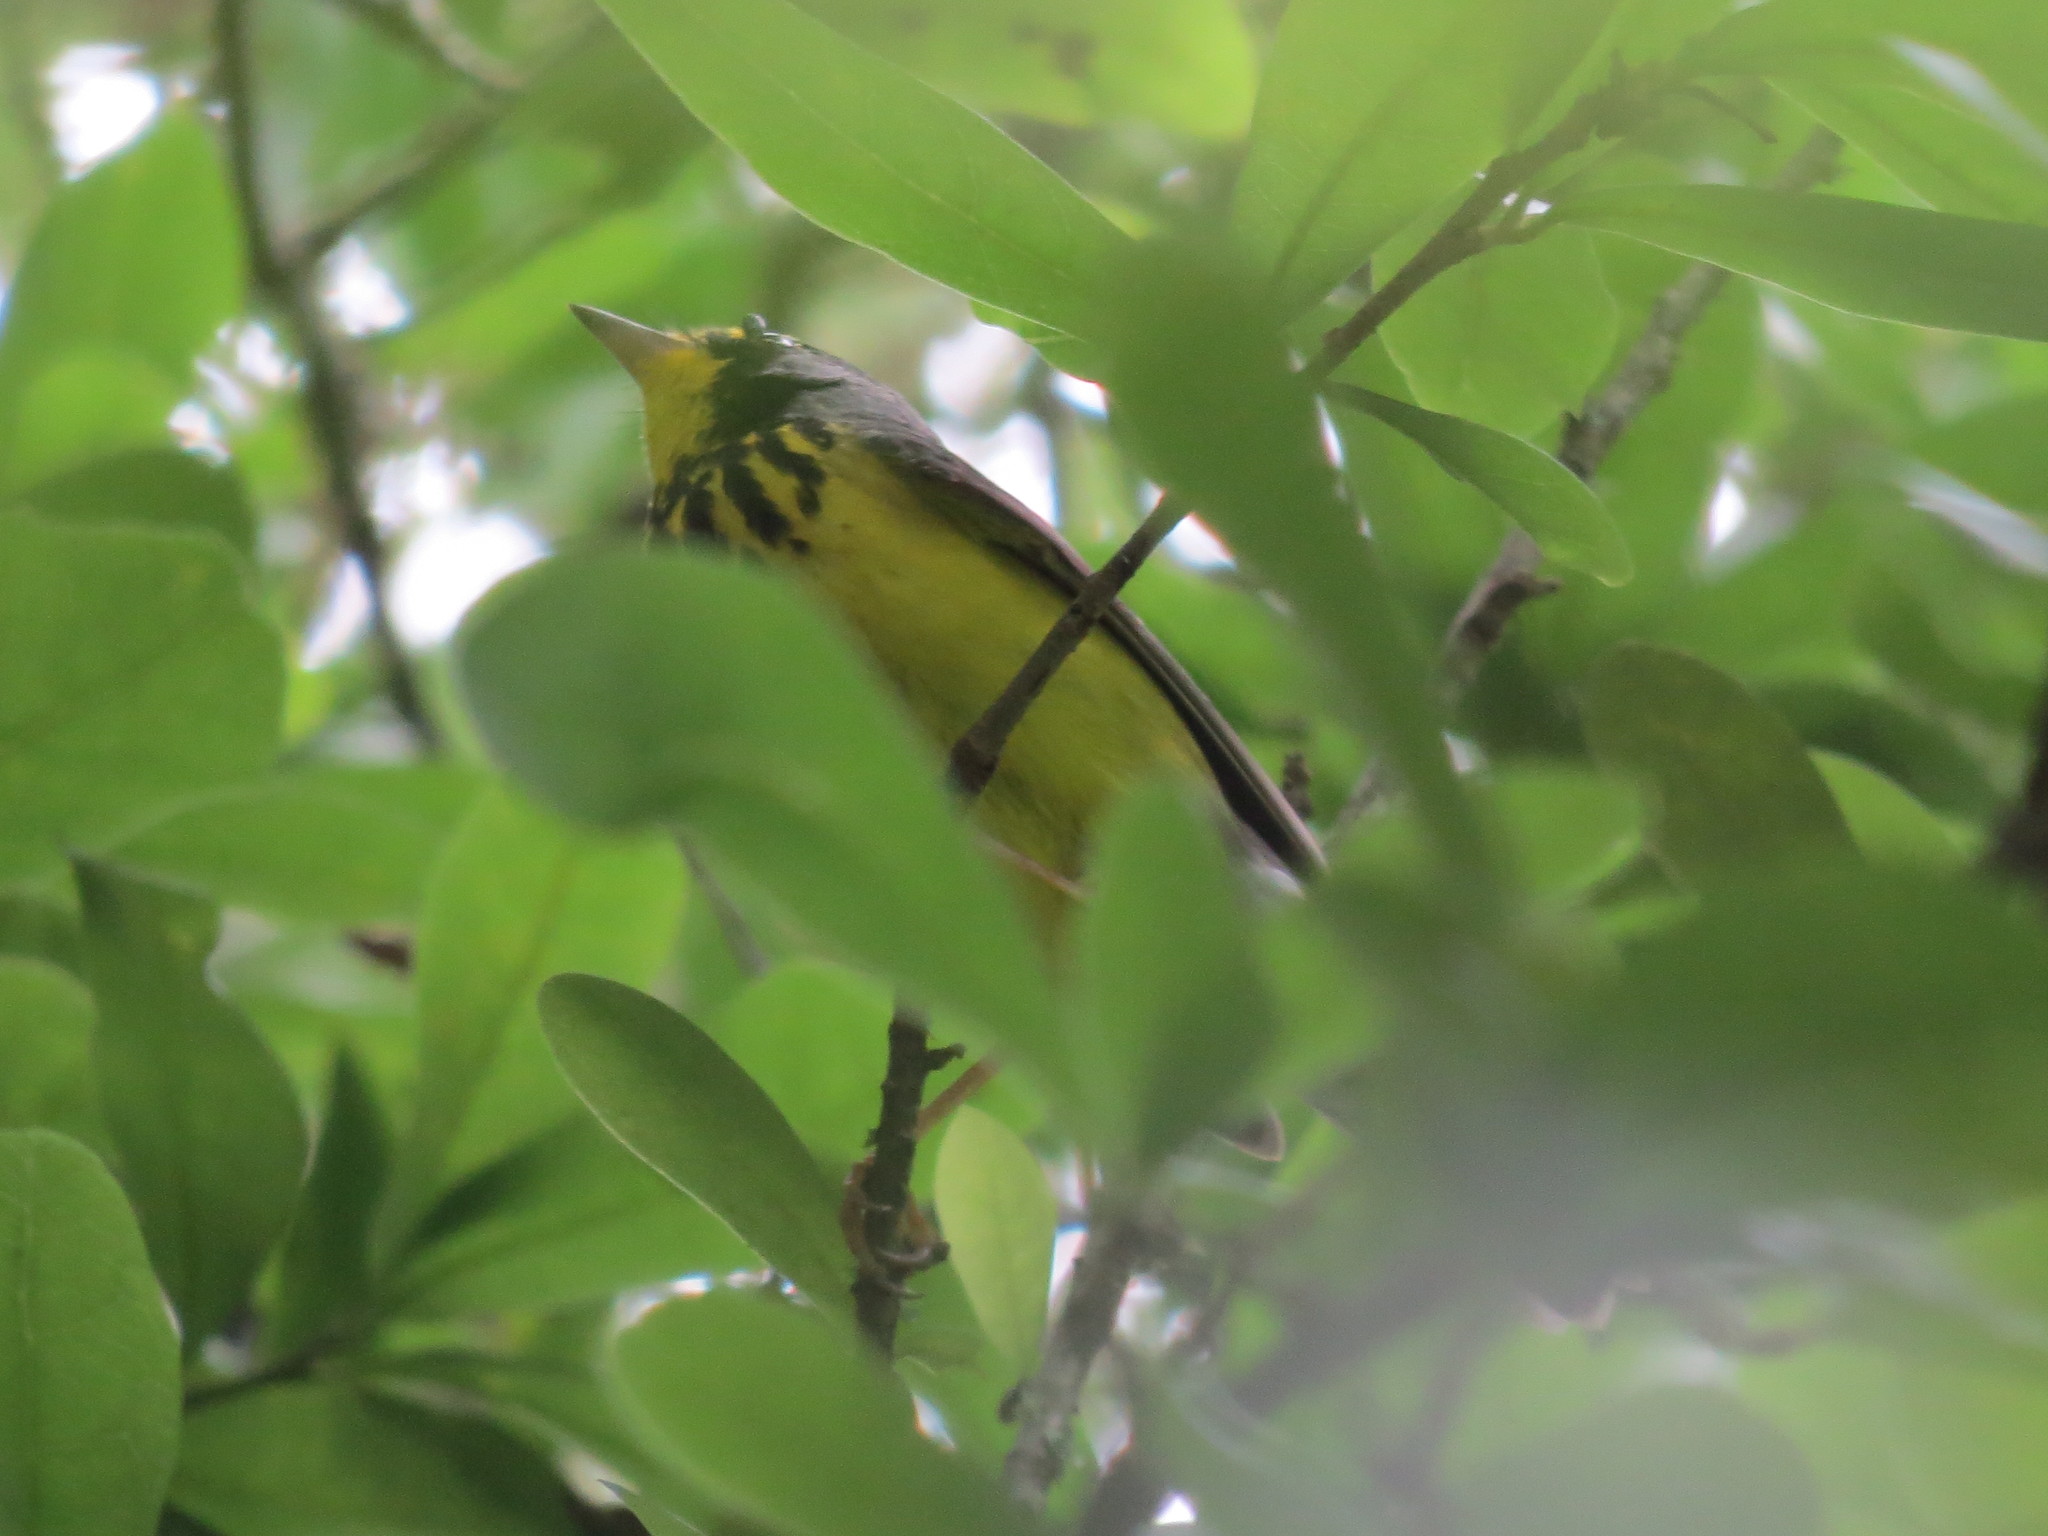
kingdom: Animalia
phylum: Chordata
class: Aves
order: Passeriformes
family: Parulidae
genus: Cardellina
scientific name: Cardellina canadensis
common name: Canada warbler
